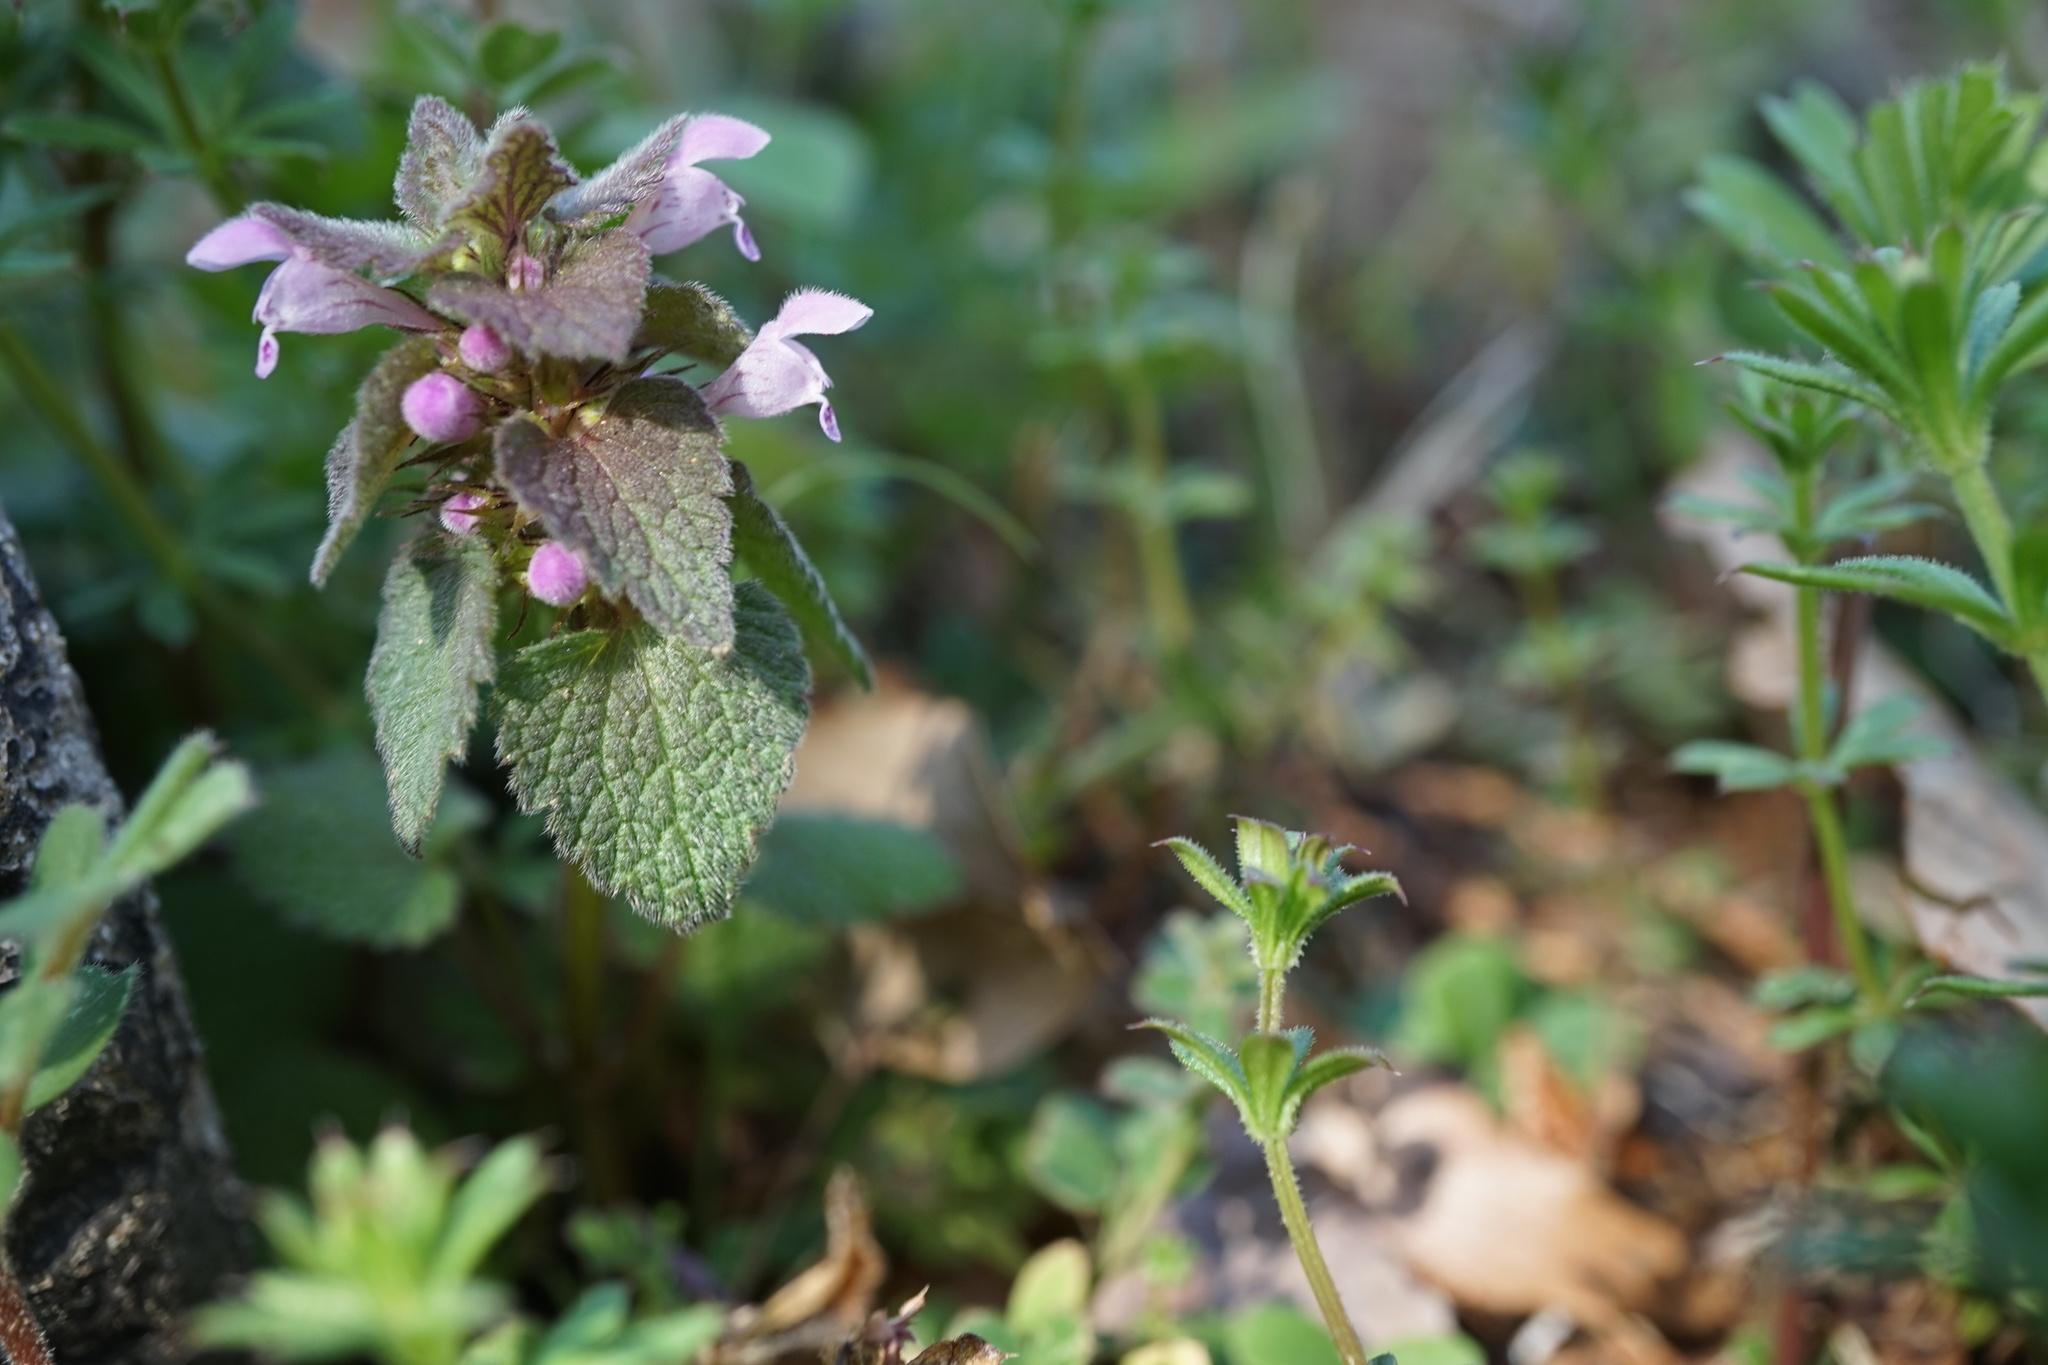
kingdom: Plantae
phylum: Tracheophyta
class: Magnoliopsida
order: Lamiales
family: Lamiaceae
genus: Lamium
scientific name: Lamium purpureum
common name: Red dead-nettle
